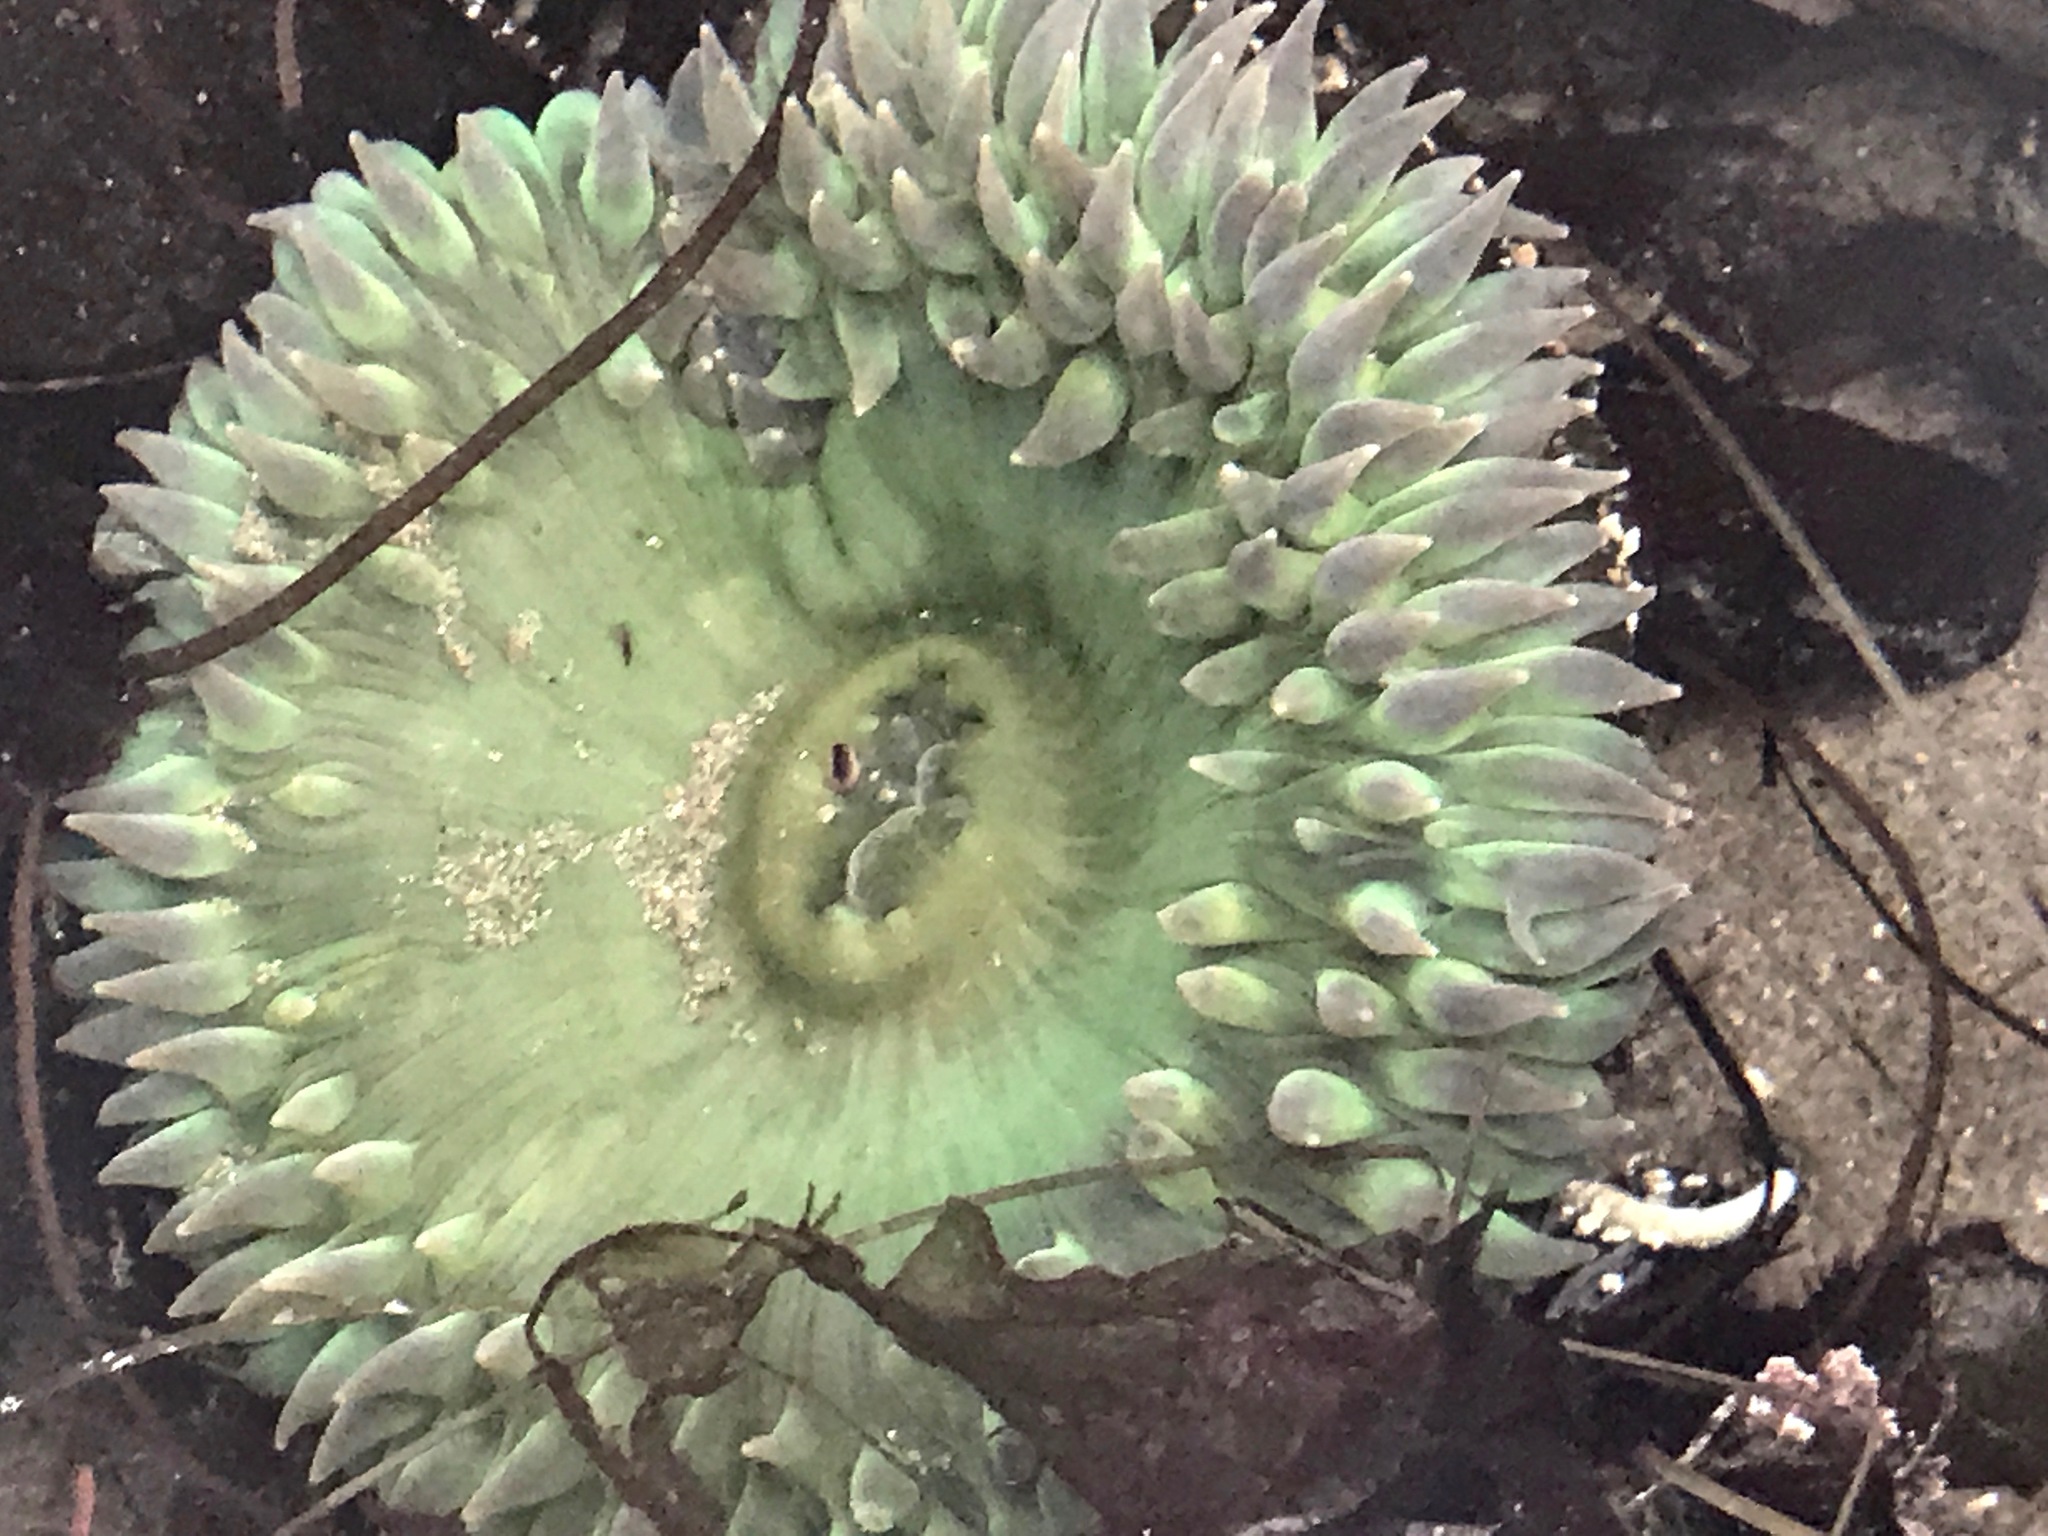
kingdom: Animalia
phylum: Cnidaria
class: Anthozoa
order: Actiniaria
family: Actiniidae
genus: Anthopleura
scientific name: Anthopleura xanthogrammica
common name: Giant green anemone
